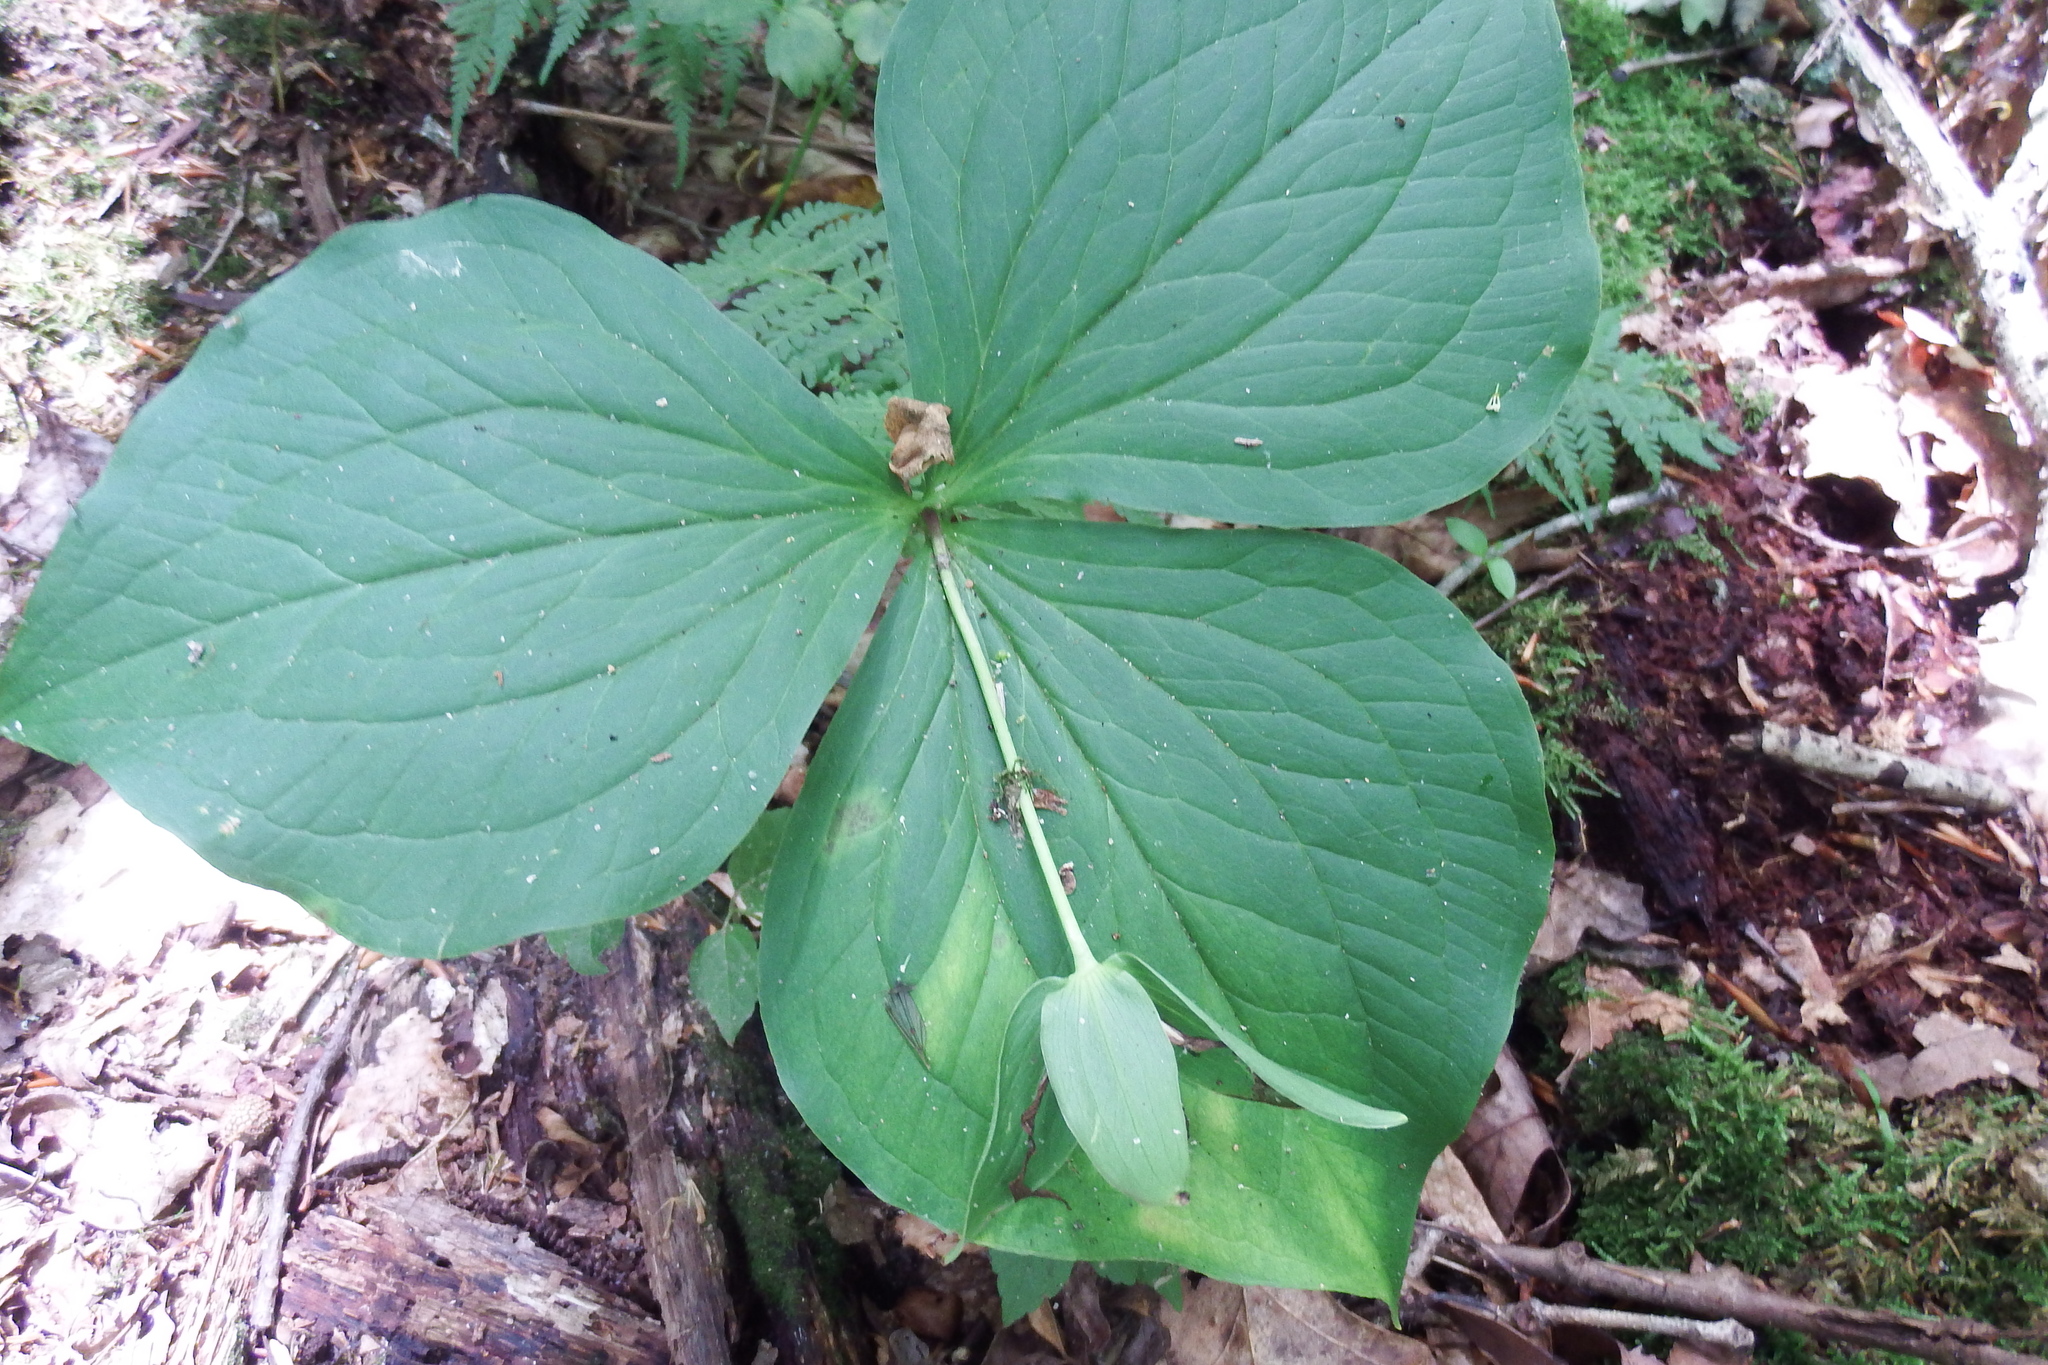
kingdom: Plantae
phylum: Tracheophyta
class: Liliopsida
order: Liliales
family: Melanthiaceae
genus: Trillium
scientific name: Trillium grandiflorum
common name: Great white trillium
